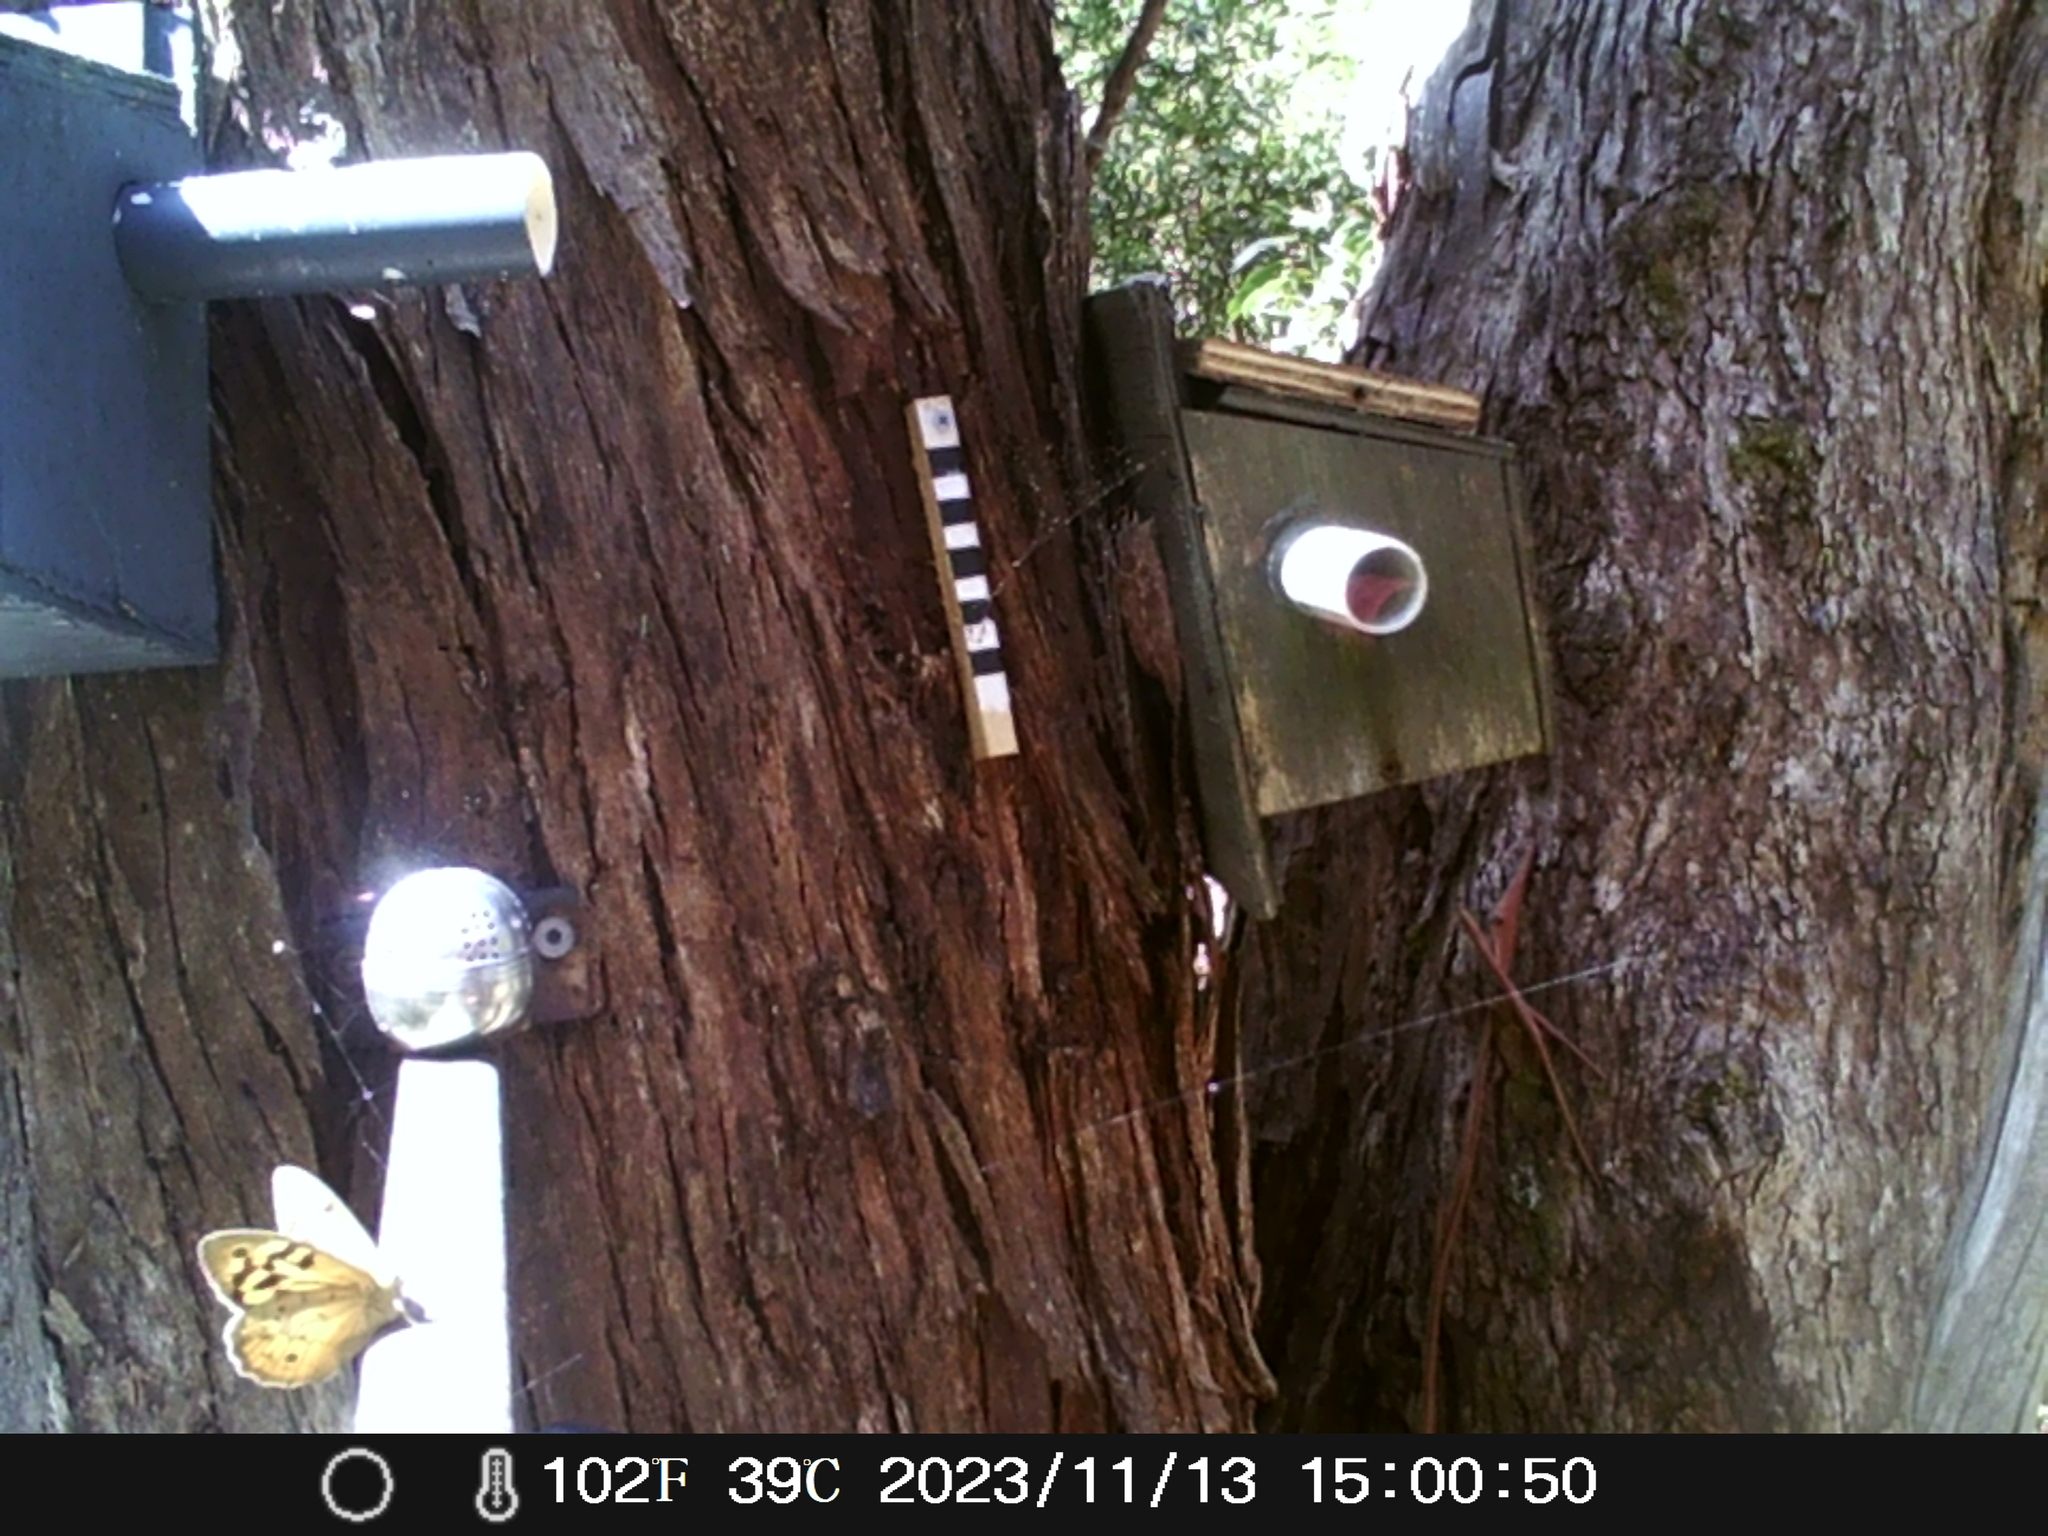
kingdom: Animalia
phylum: Arthropoda
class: Insecta
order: Lepidoptera
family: Nymphalidae
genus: Heteronympha
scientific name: Heteronympha merope
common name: Common brown
